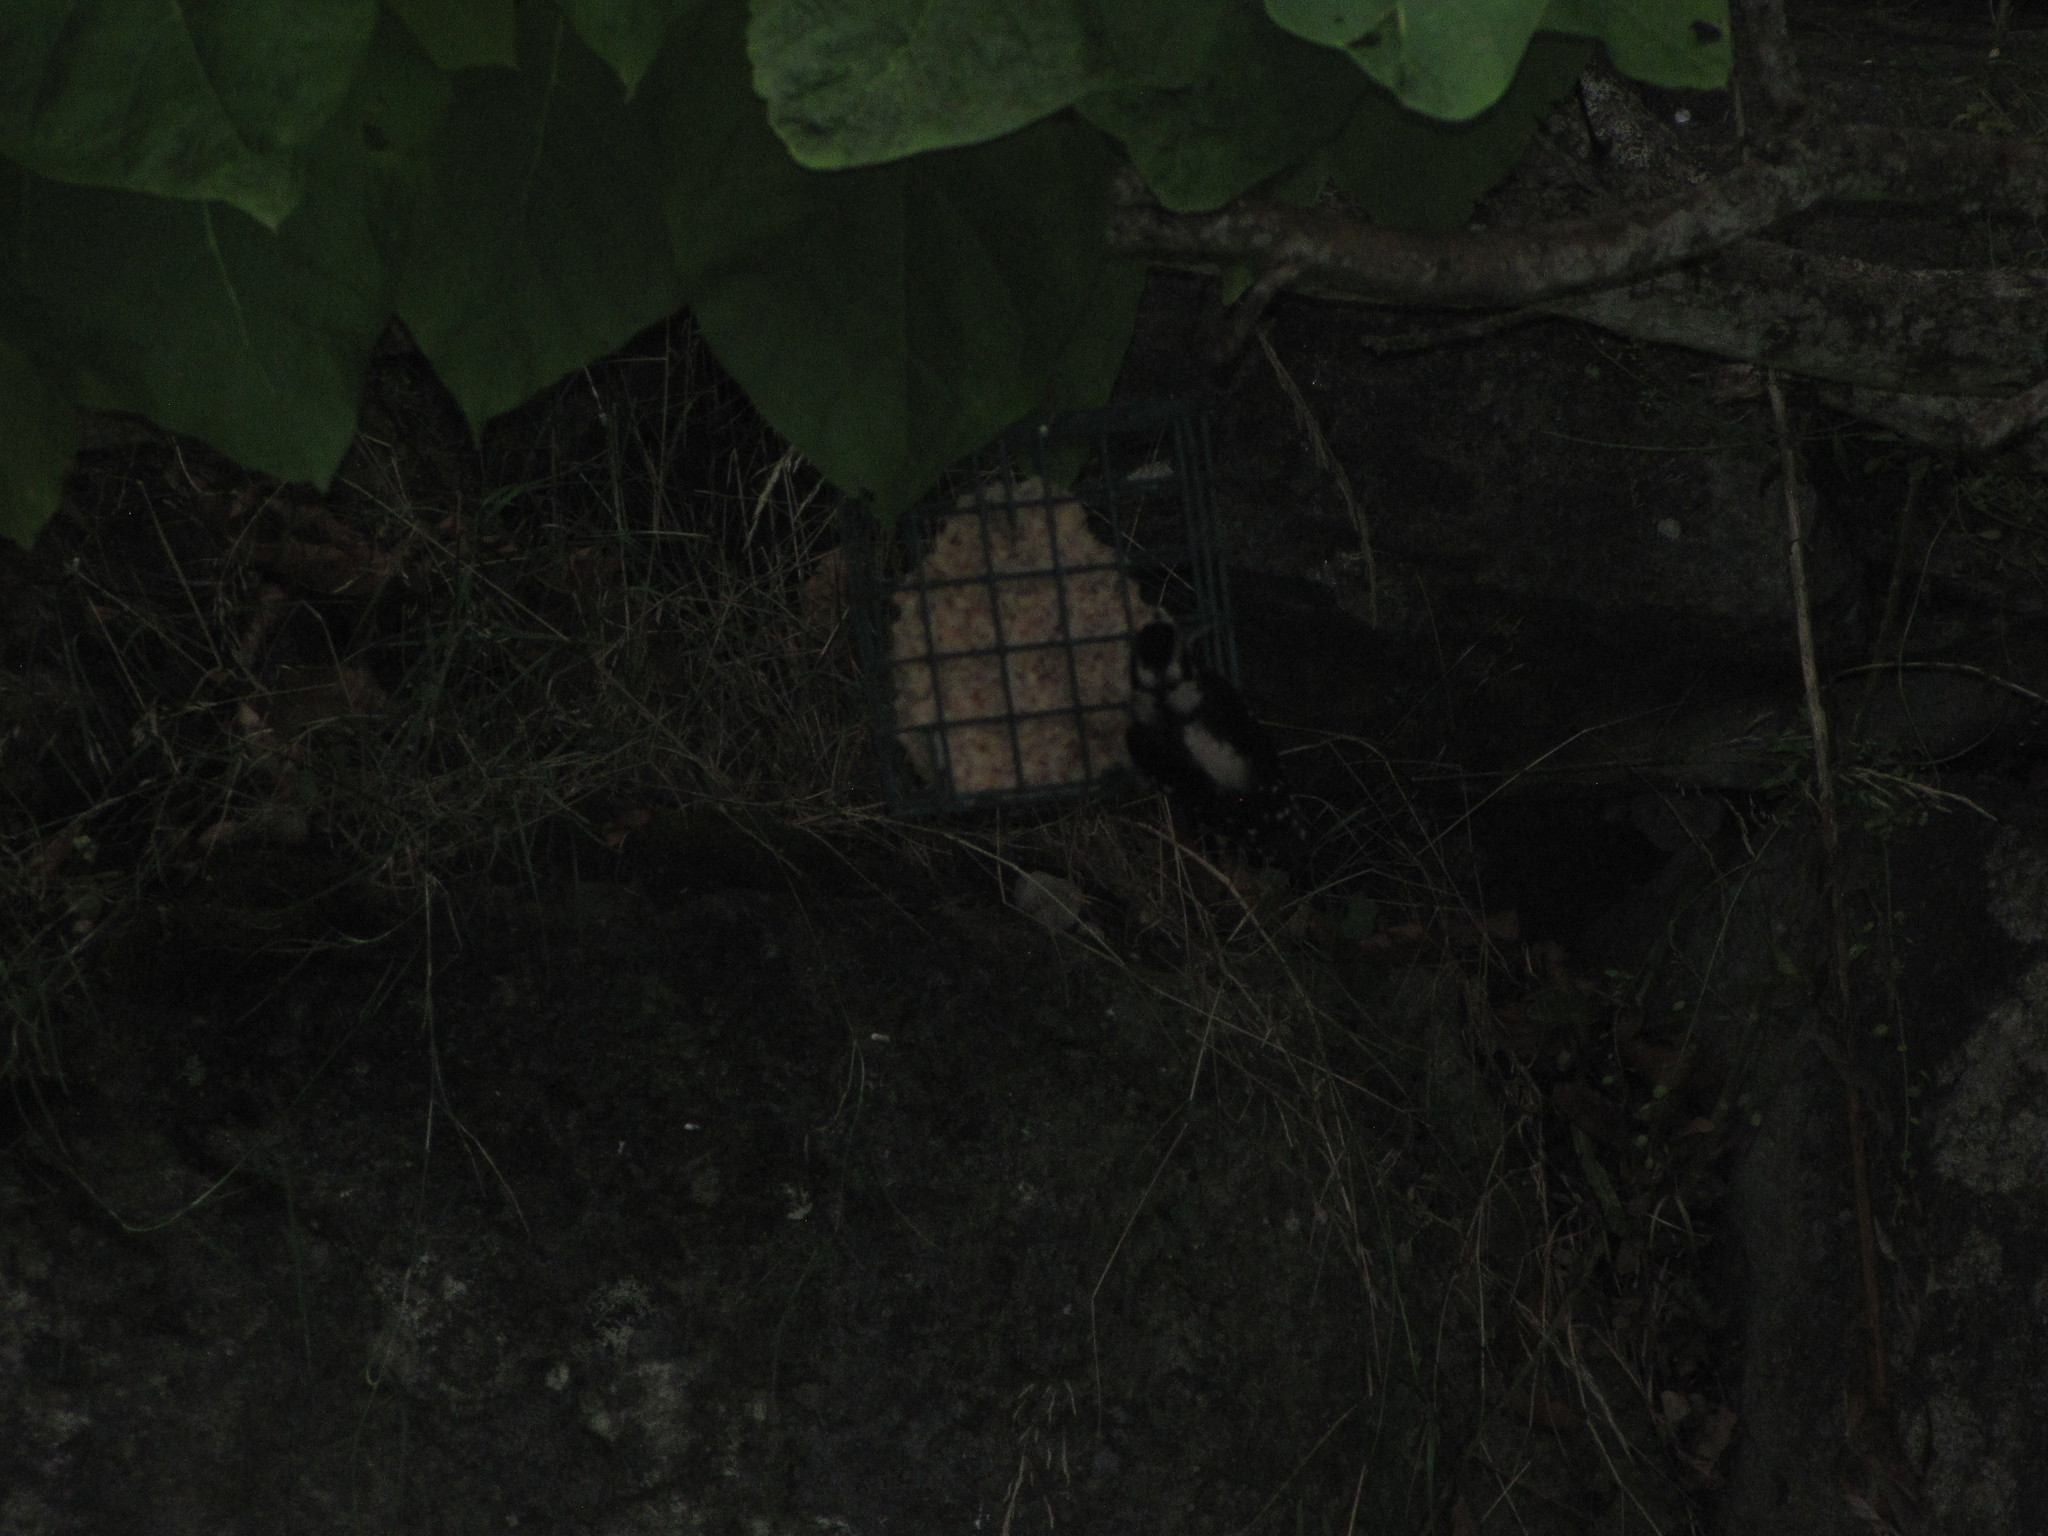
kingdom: Animalia
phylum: Chordata
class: Aves
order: Piciformes
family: Picidae
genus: Dryobates
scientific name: Dryobates pubescens
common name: Downy woodpecker
